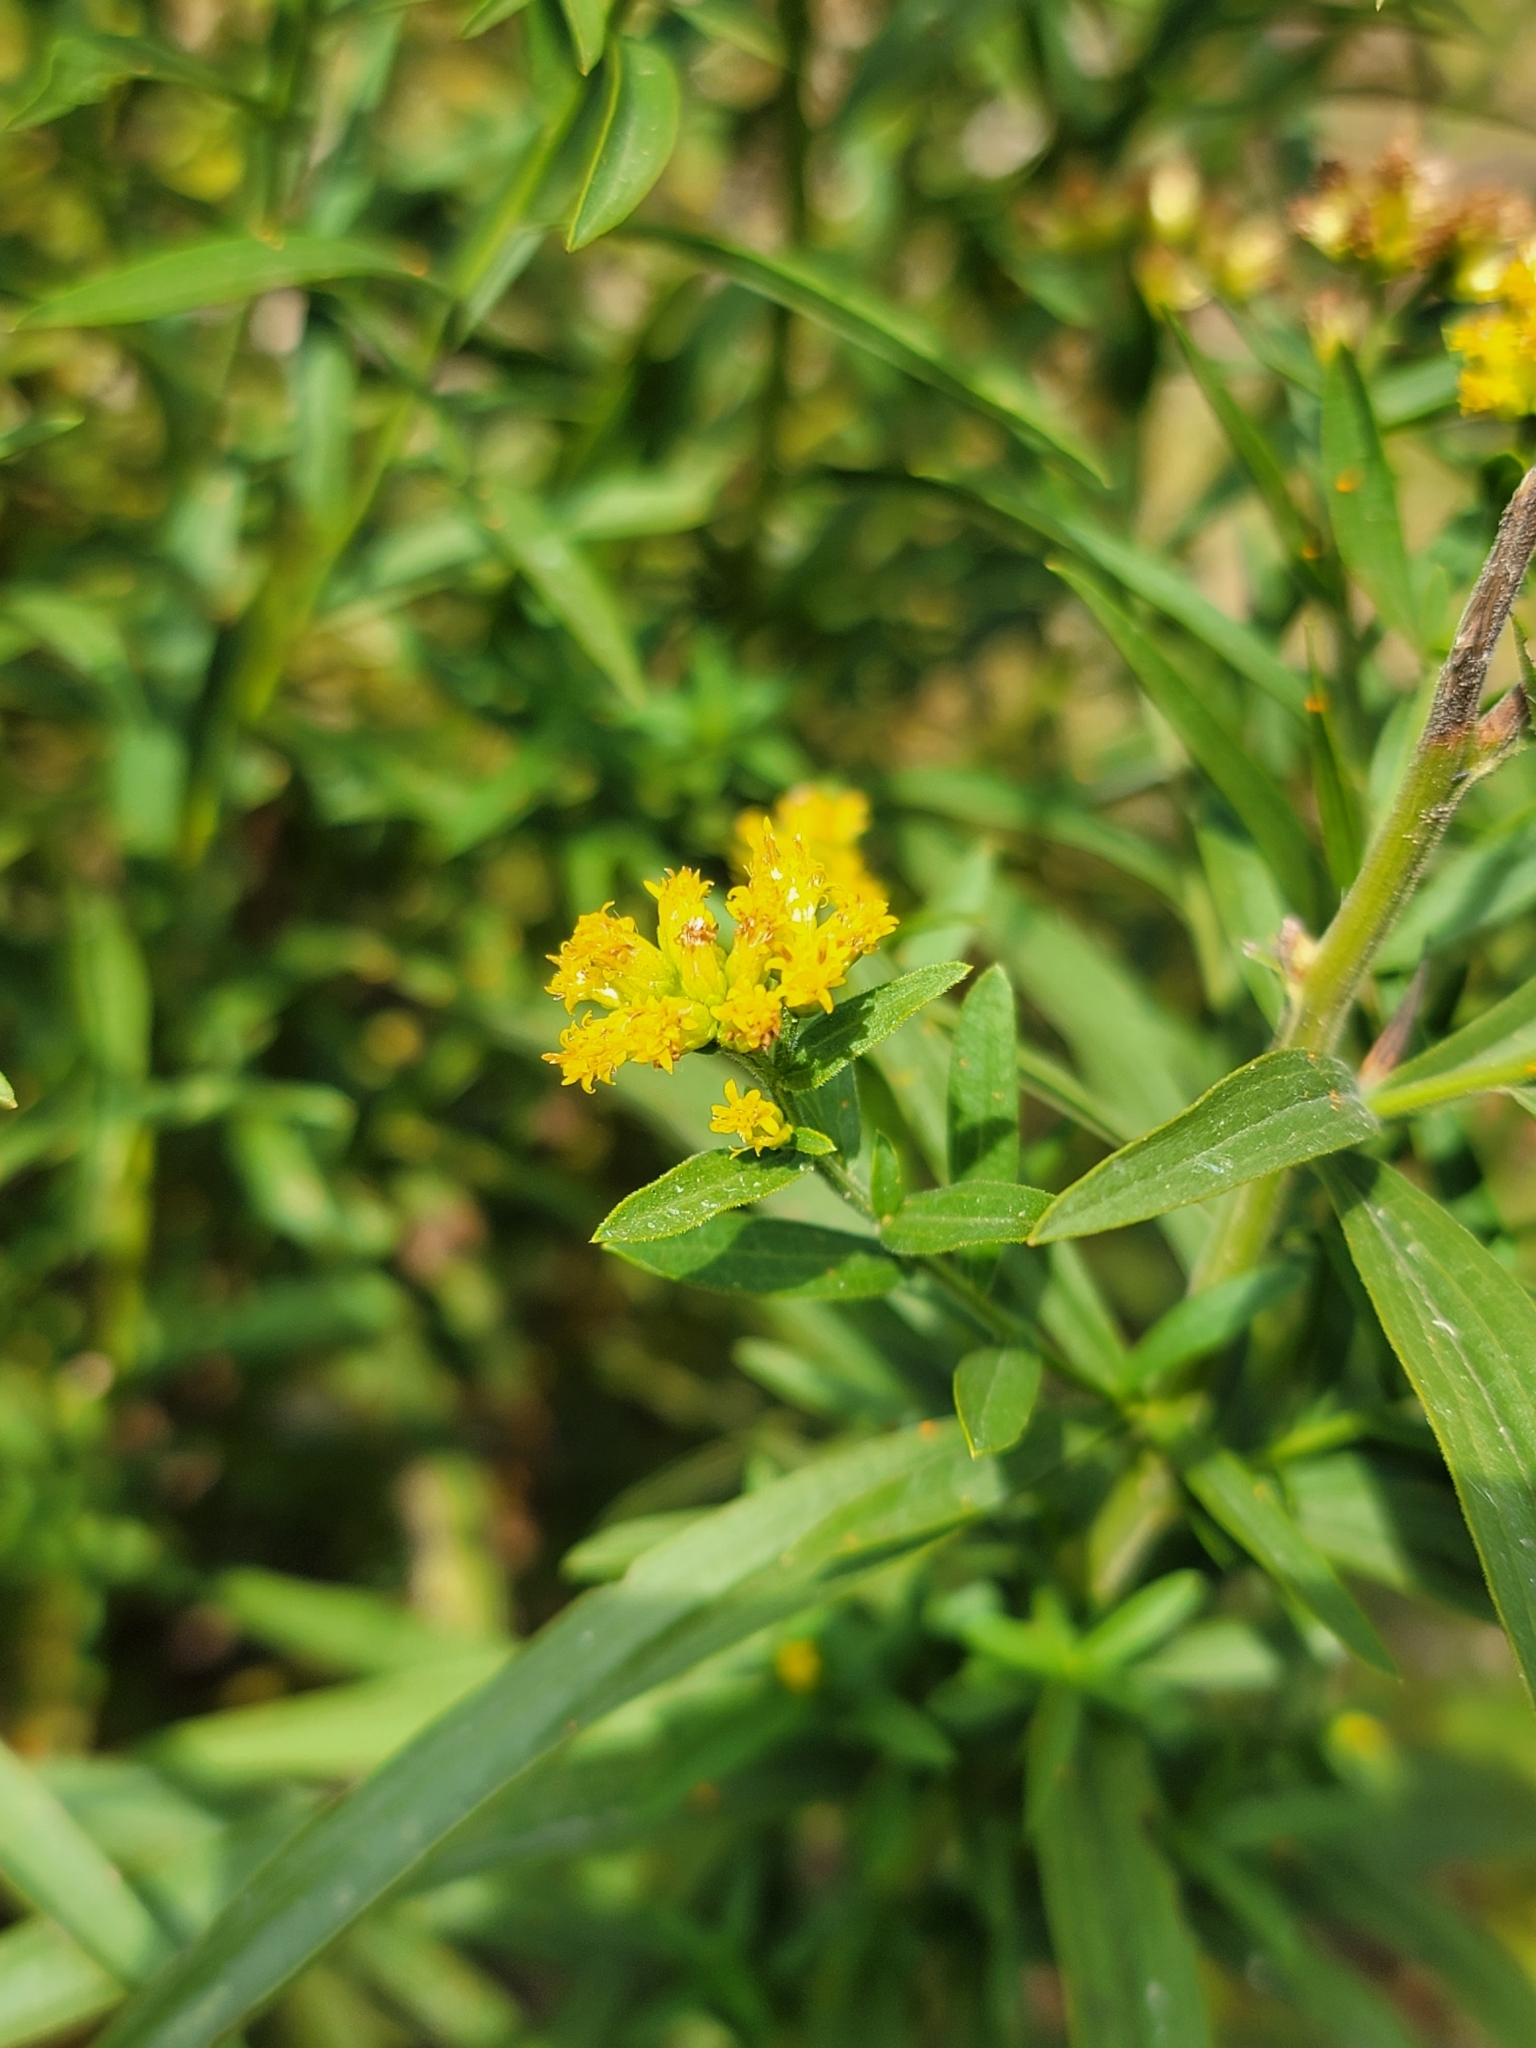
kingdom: Plantae
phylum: Tracheophyta
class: Magnoliopsida
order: Asterales
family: Asteraceae
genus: Euthamia
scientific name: Euthamia graminifolia
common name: Common goldentop
